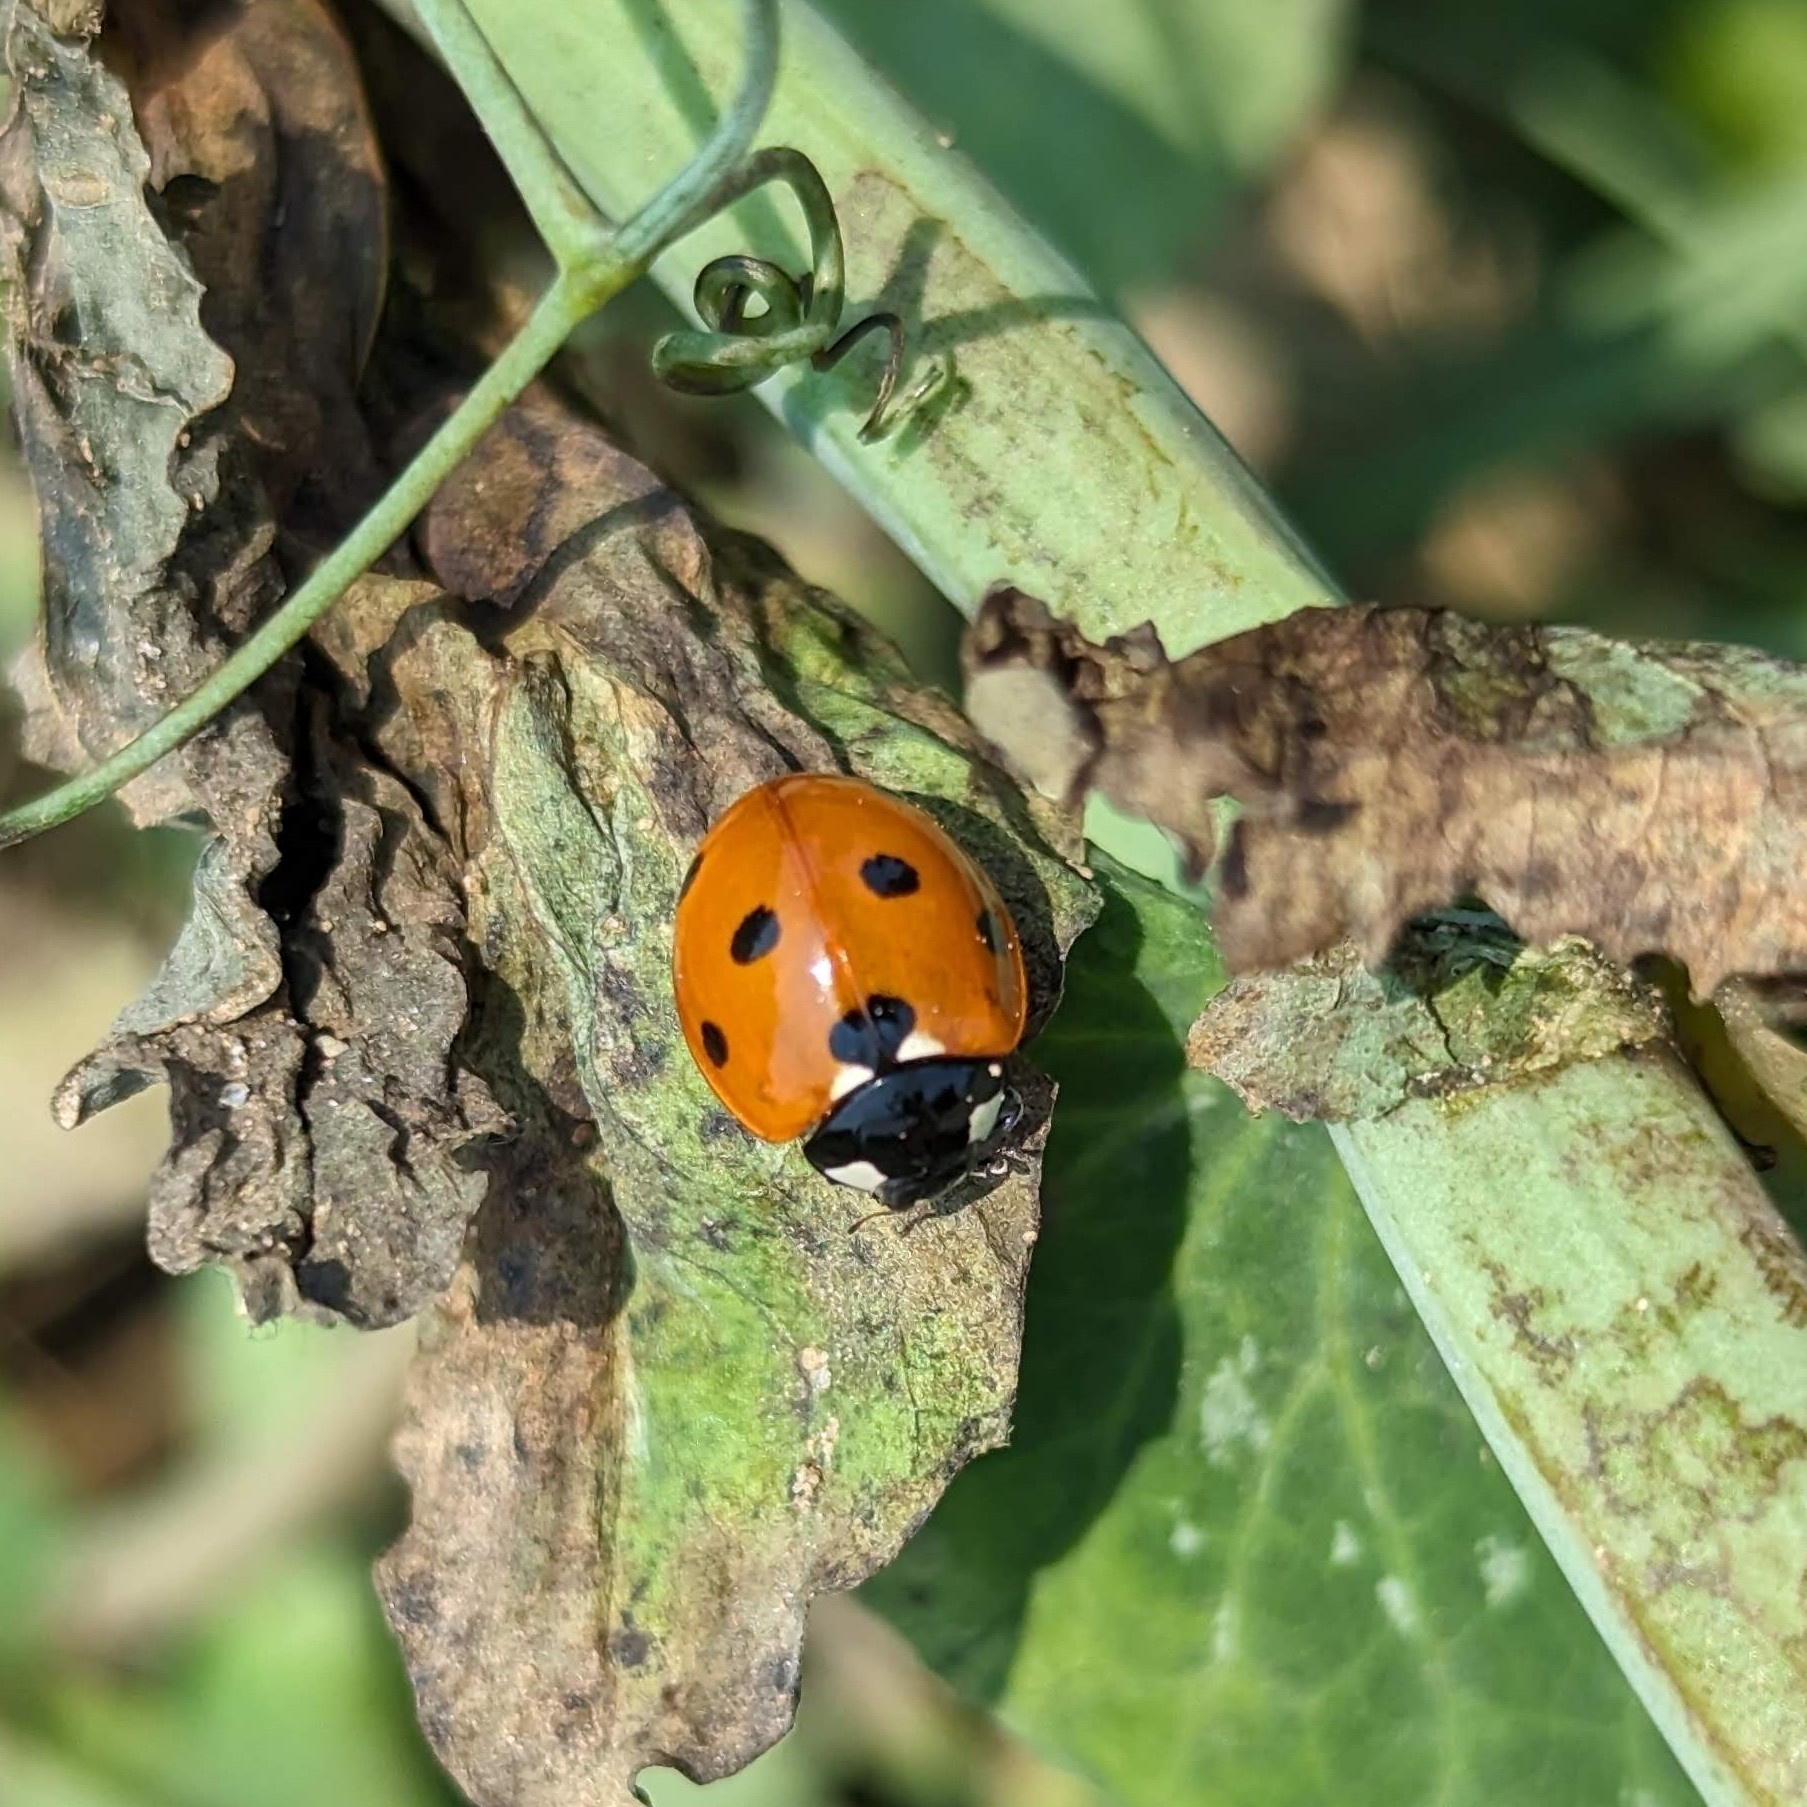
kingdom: Animalia
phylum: Arthropoda
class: Insecta
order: Coleoptera
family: Coccinellidae
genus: Coccinella
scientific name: Coccinella septempunctata
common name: Sevenspotted lady beetle
